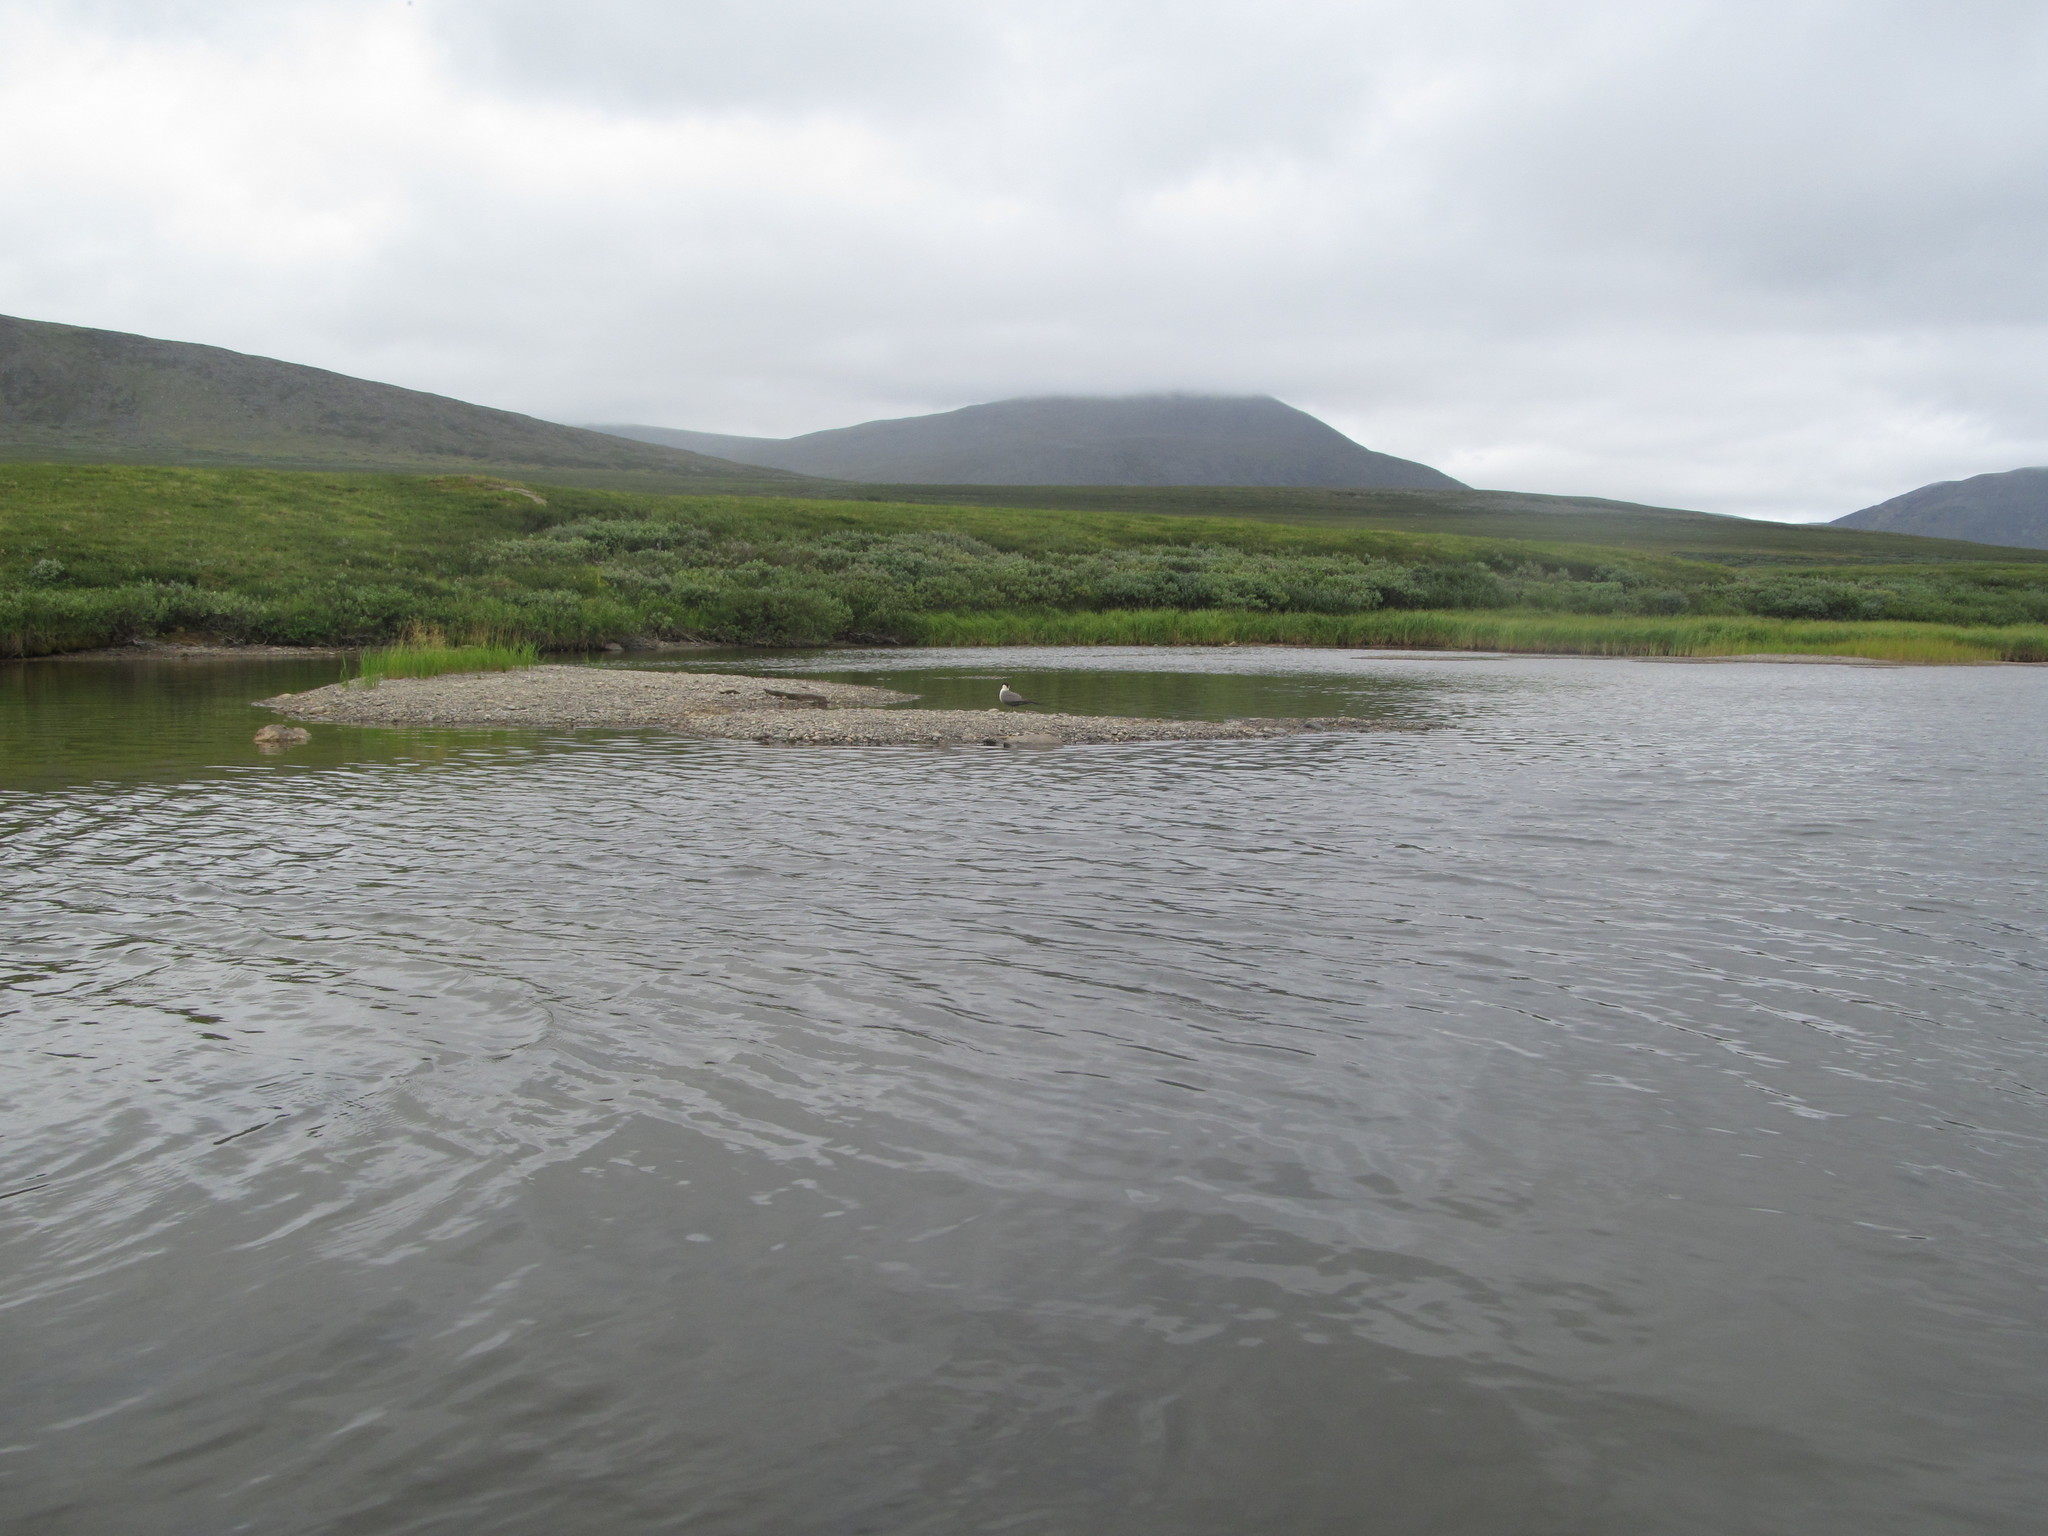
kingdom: Animalia
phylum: Chordata
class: Aves
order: Charadriiformes
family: Stercorariidae
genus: Stercorarius
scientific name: Stercorarius longicaudus
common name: Long-tailed jaeger
